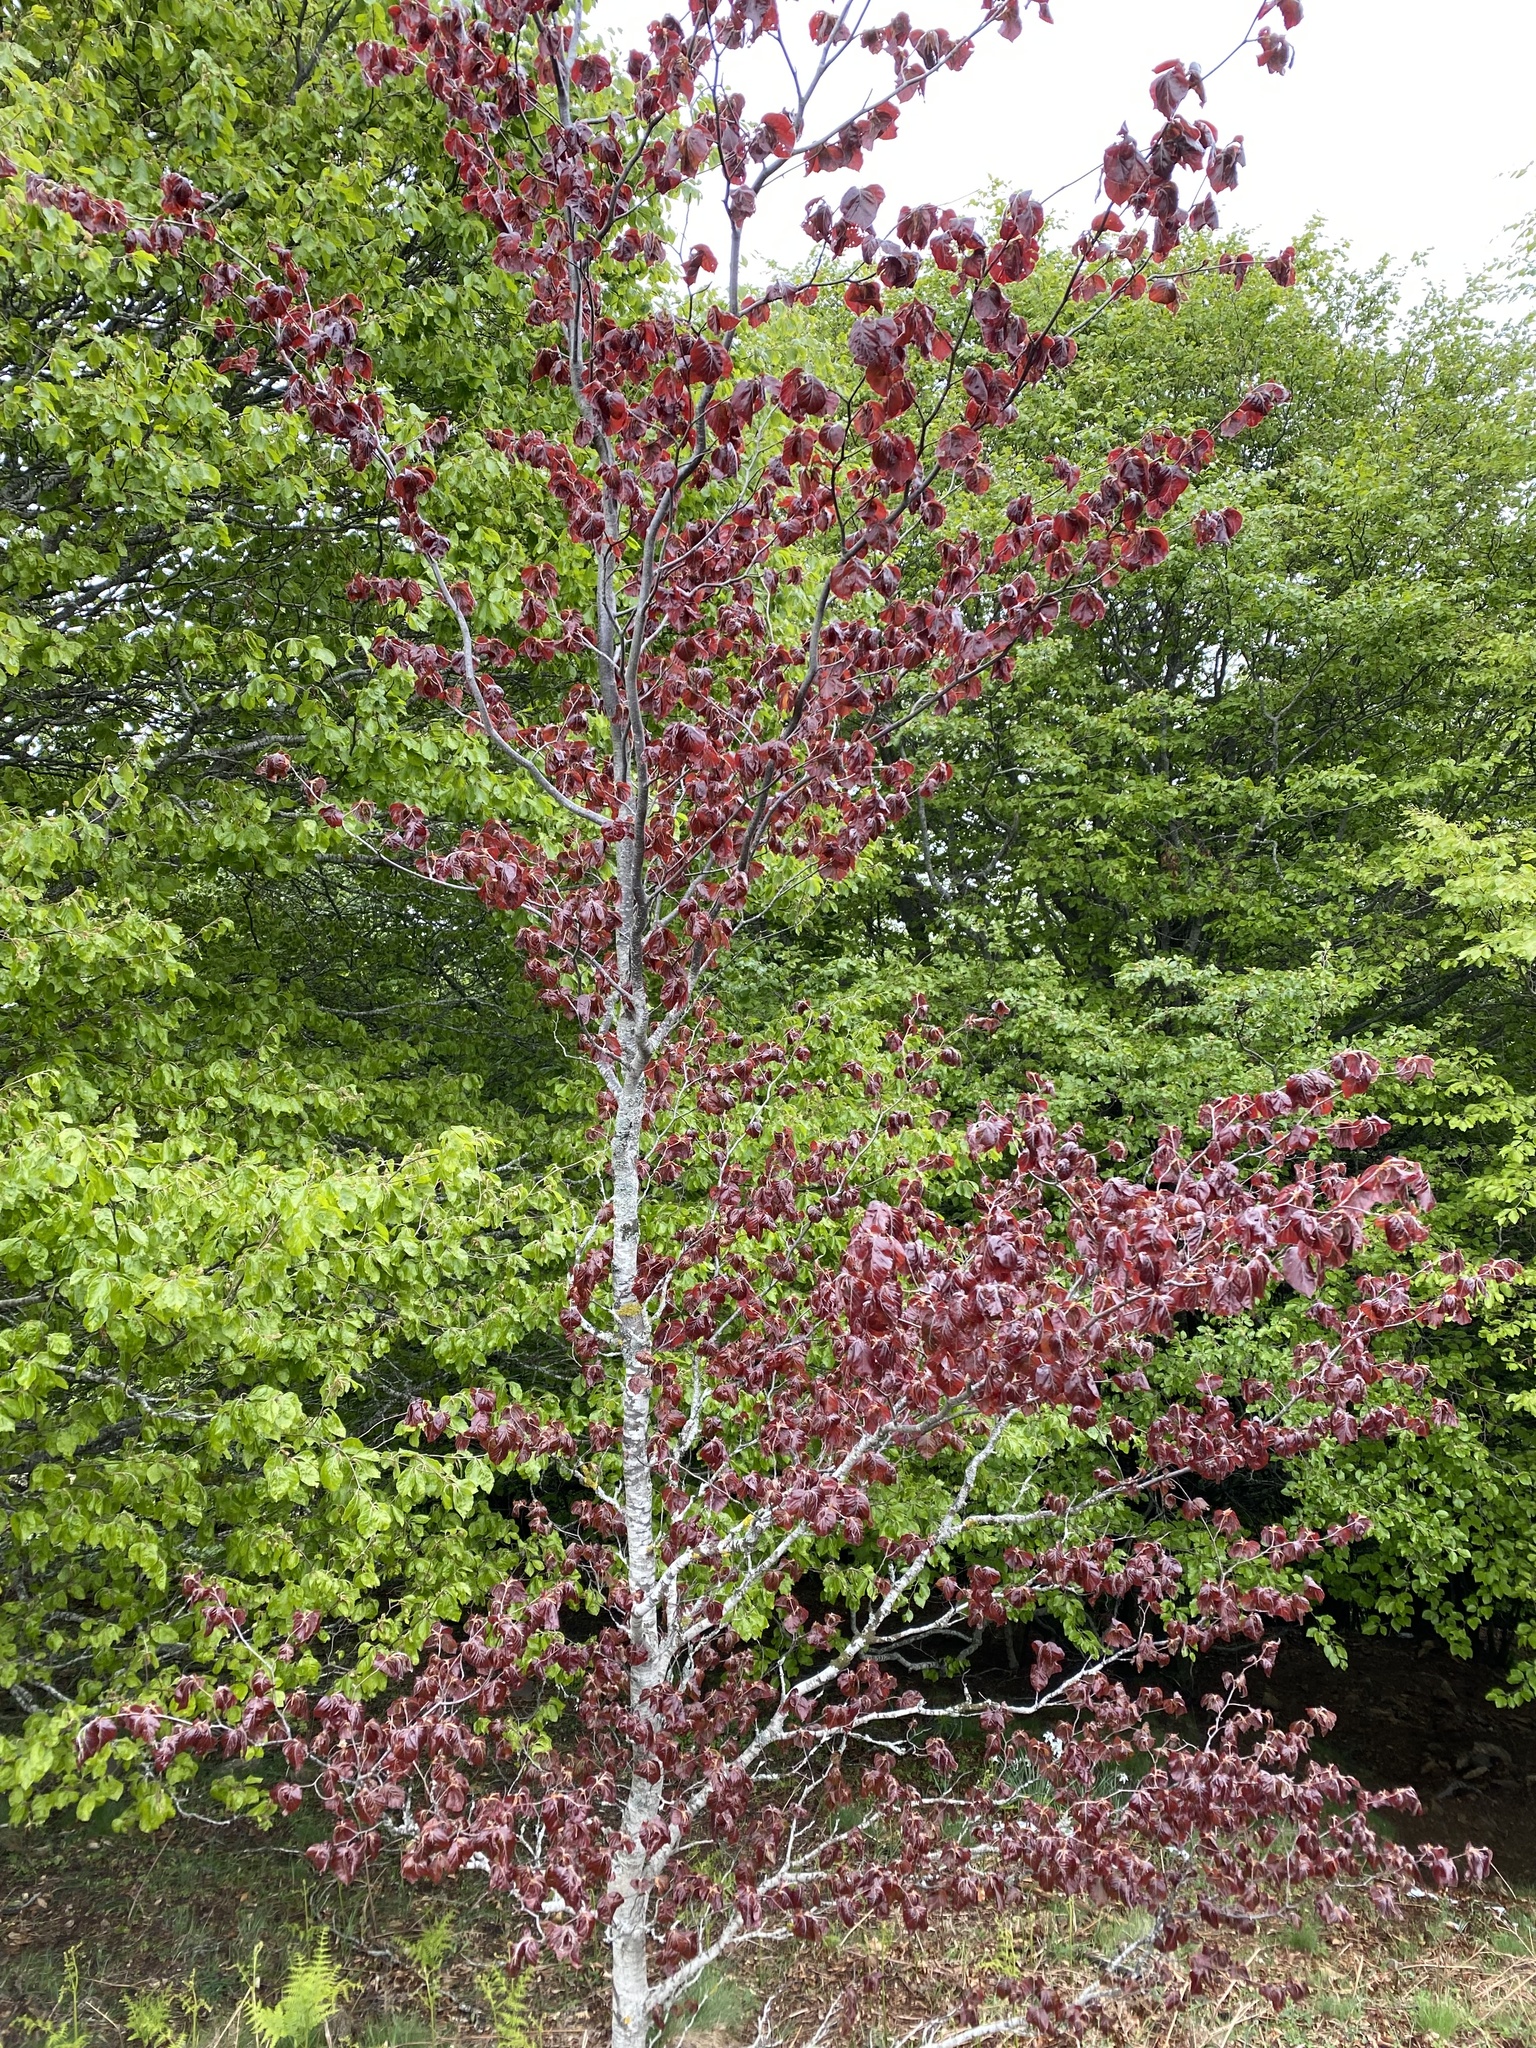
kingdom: Plantae
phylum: Tracheophyta
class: Magnoliopsida
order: Fagales
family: Fagaceae
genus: Fagus
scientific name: Fagus sylvatica
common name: Beech
